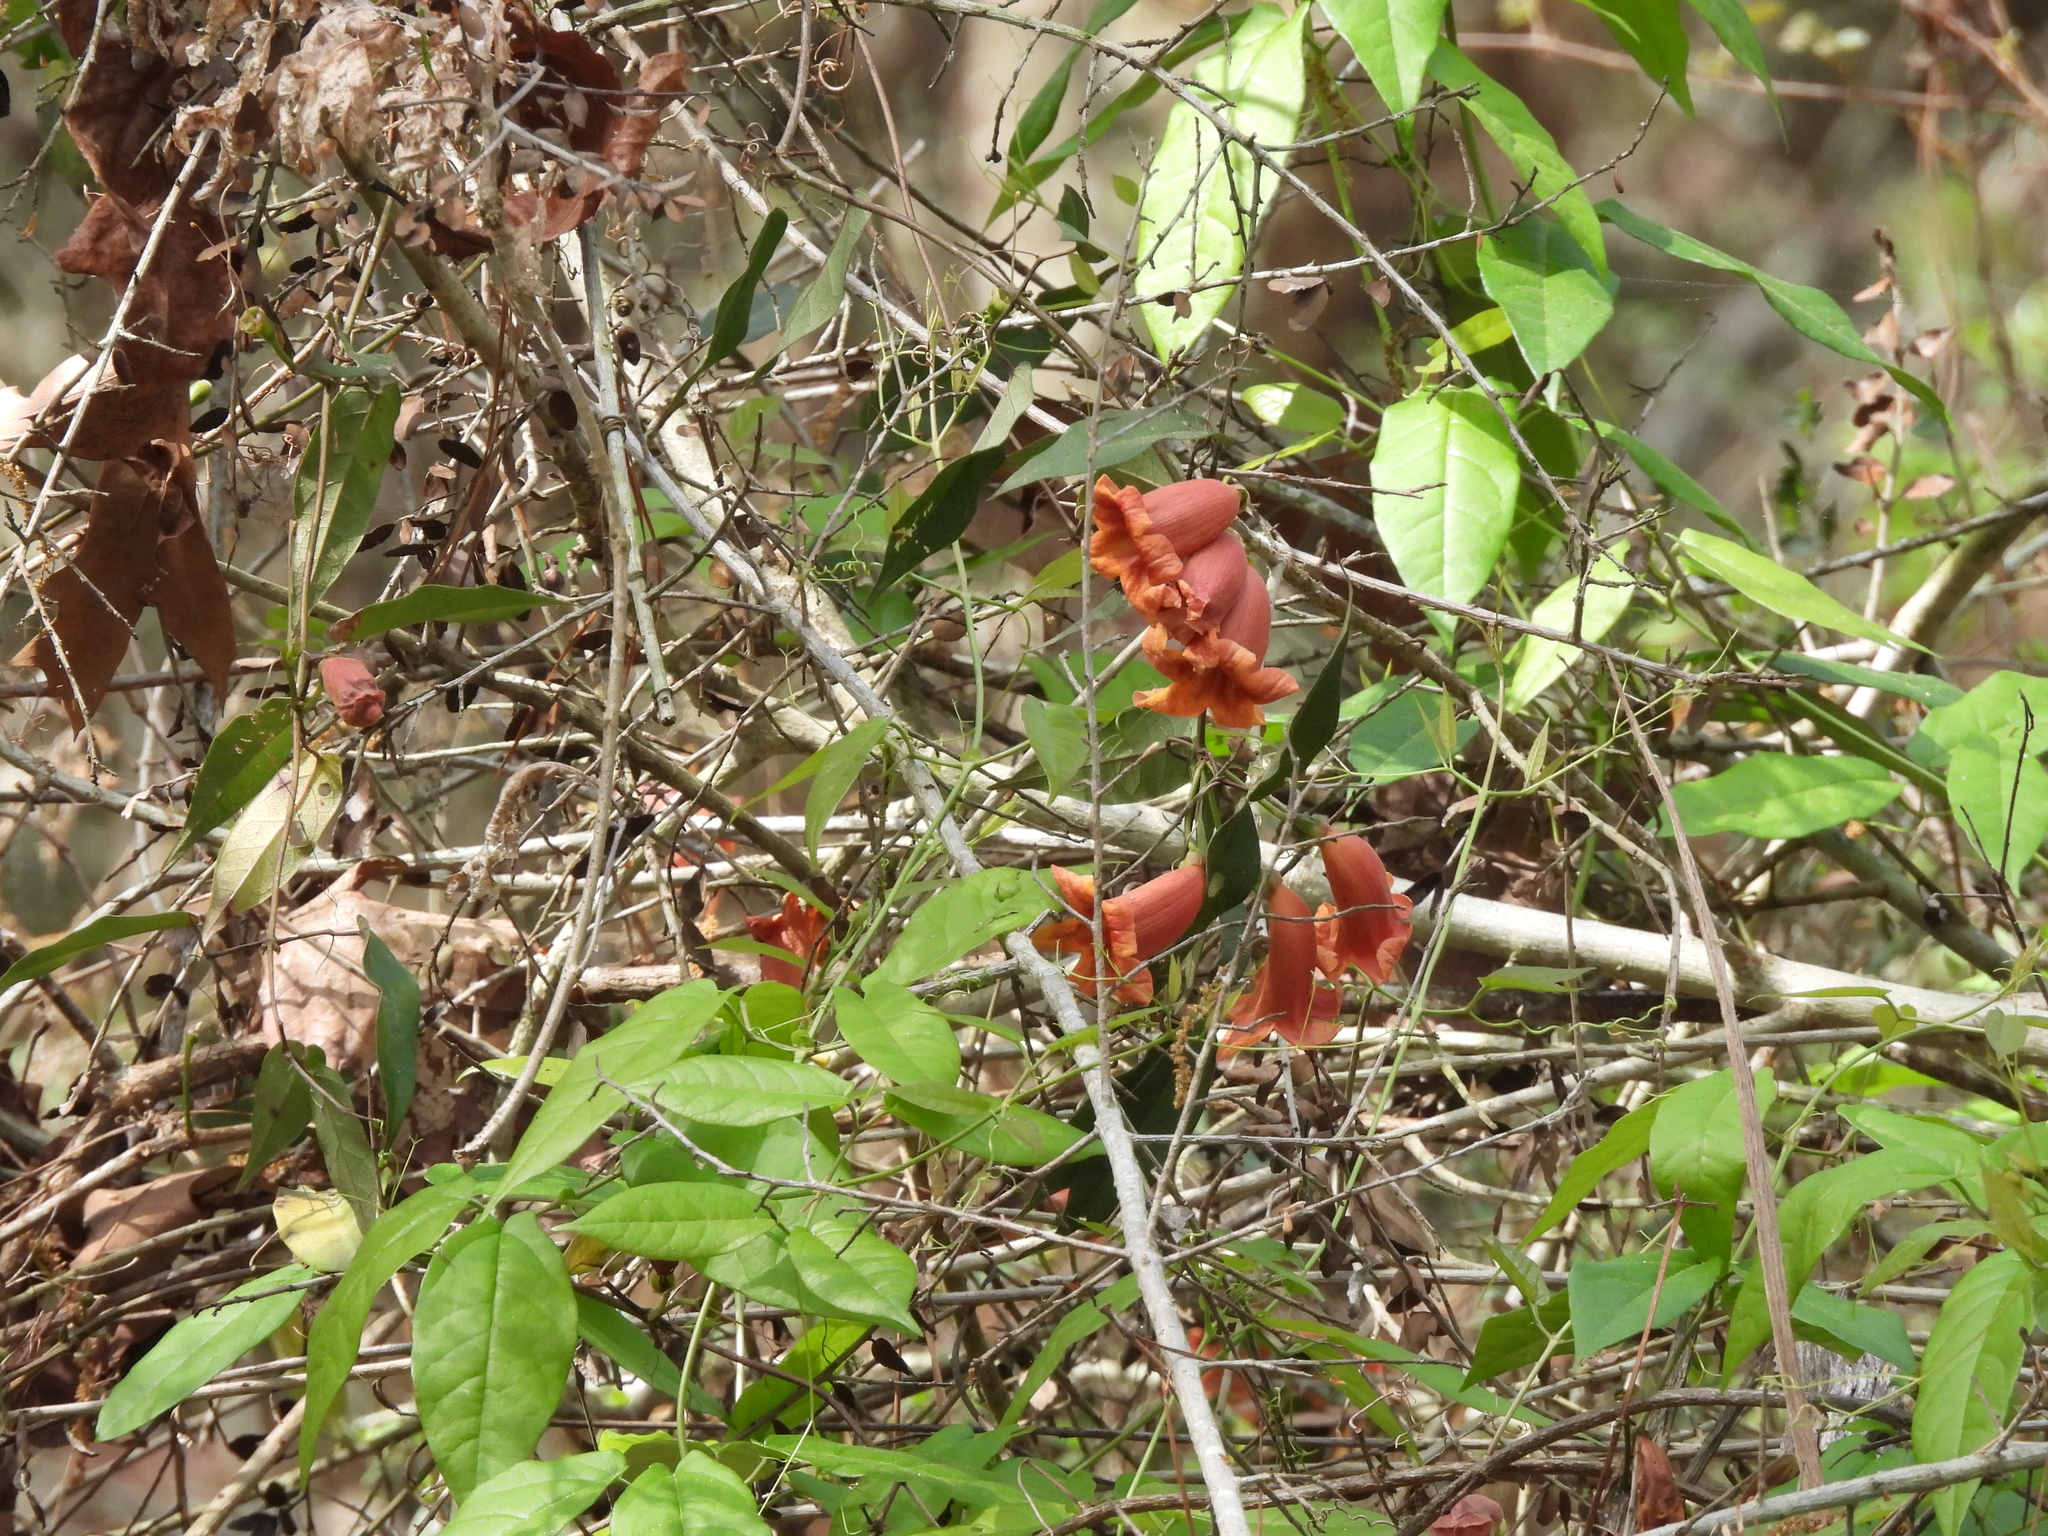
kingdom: Plantae
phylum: Tracheophyta
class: Magnoliopsida
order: Lamiales
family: Bignoniaceae
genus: Bignonia
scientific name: Bignonia capreolata
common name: Crossvine
